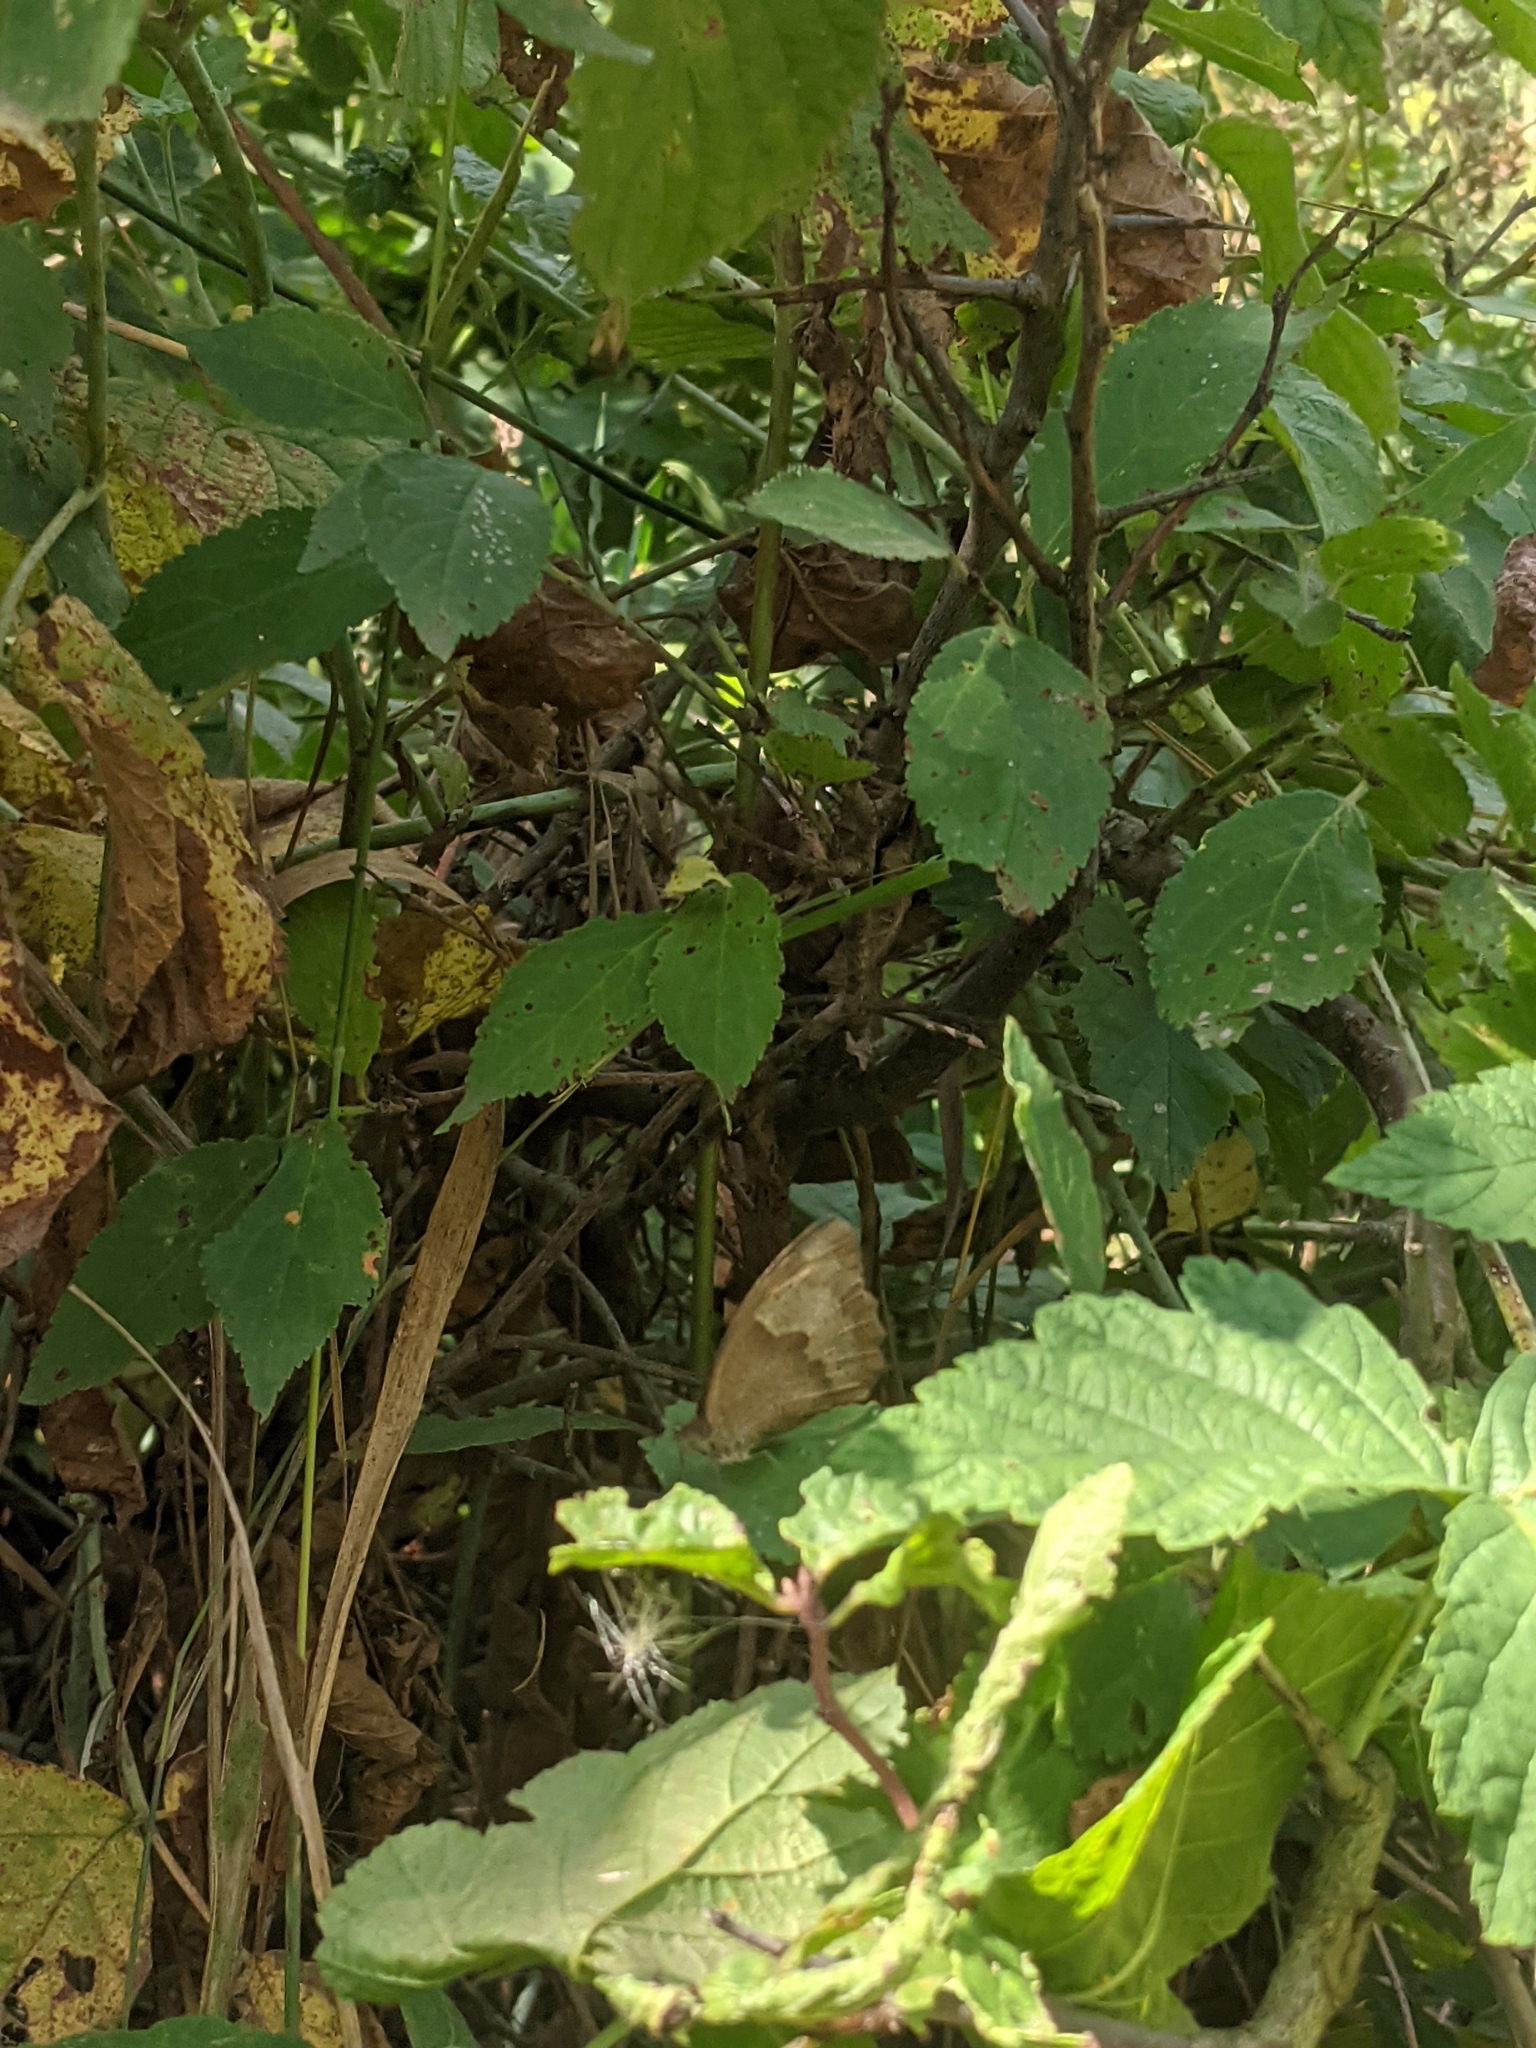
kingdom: Animalia
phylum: Arthropoda
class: Insecta
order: Lepidoptera
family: Nymphalidae
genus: Maniola
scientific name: Maniola jurtina
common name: Meadow brown
